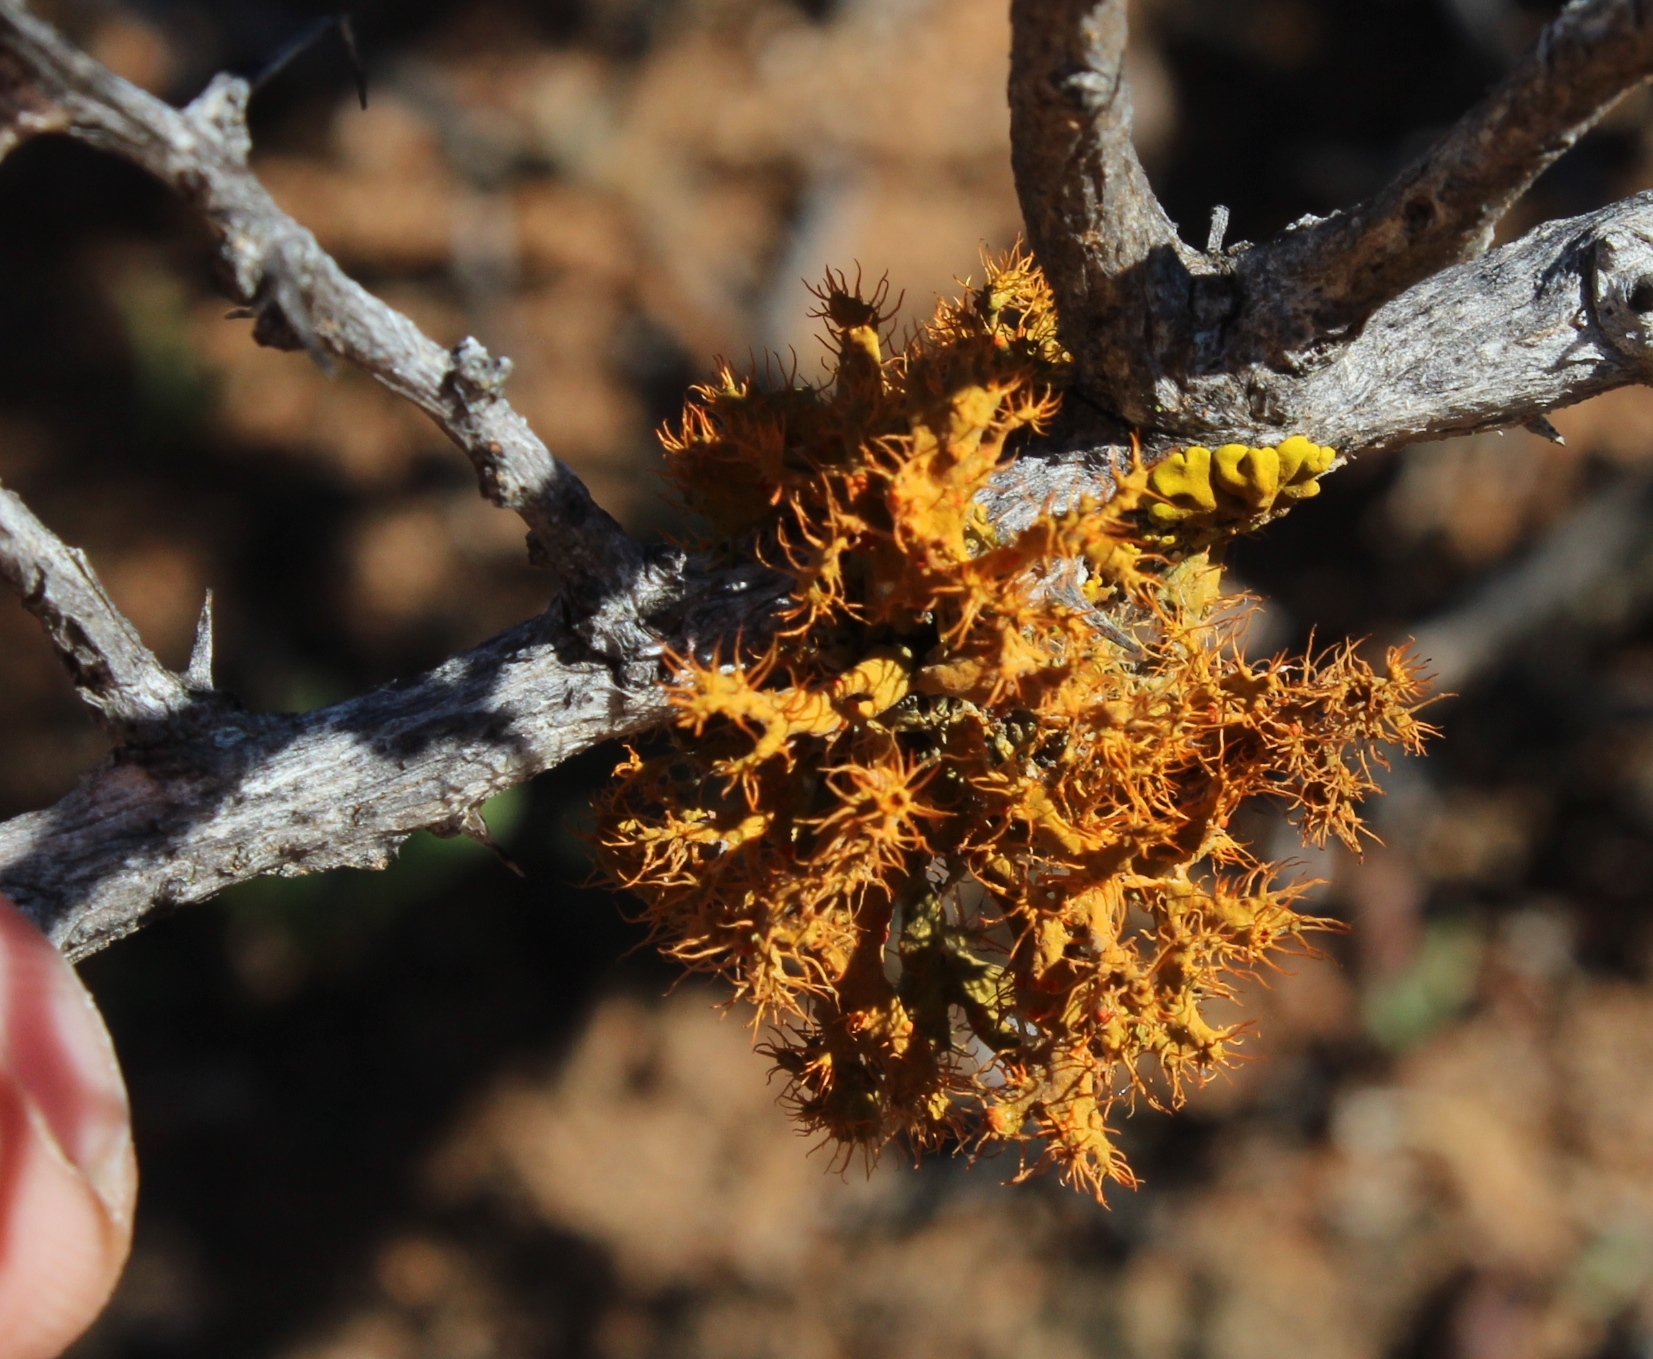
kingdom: Fungi
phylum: Ascomycota
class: Lecanoromycetes
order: Teloschistales
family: Teloschistaceae
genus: Teloschistes
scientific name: Teloschistes puber
